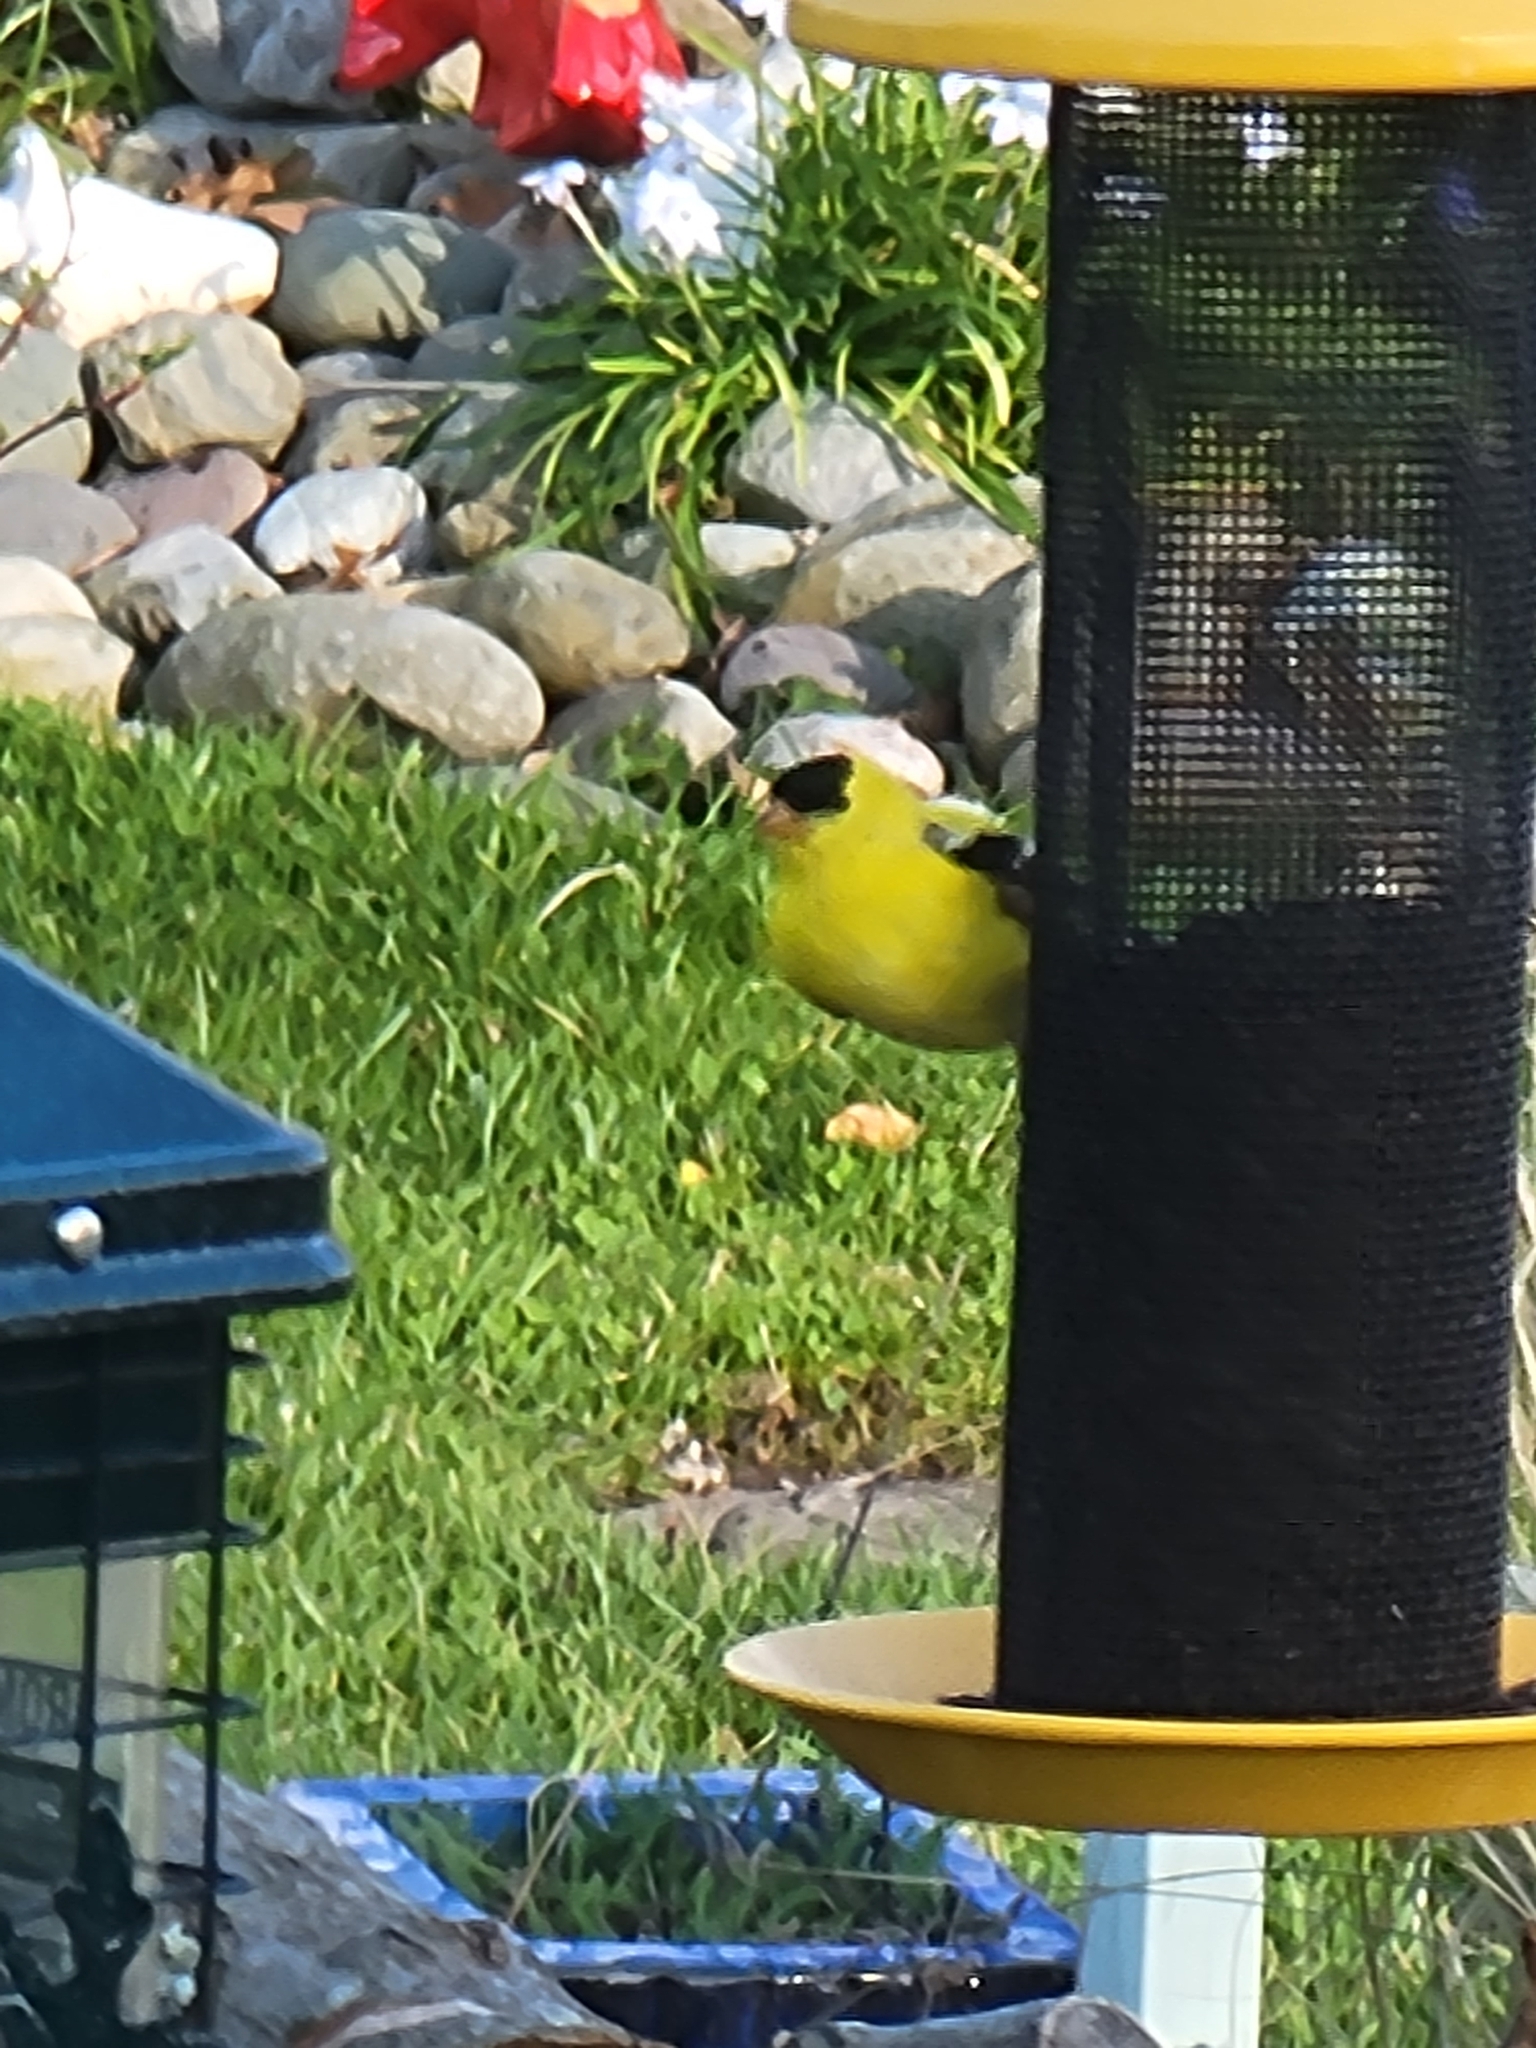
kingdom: Animalia
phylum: Chordata
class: Aves
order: Passeriformes
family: Fringillidae
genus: Spinus
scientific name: Spinus tristis
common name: American goldfinch
